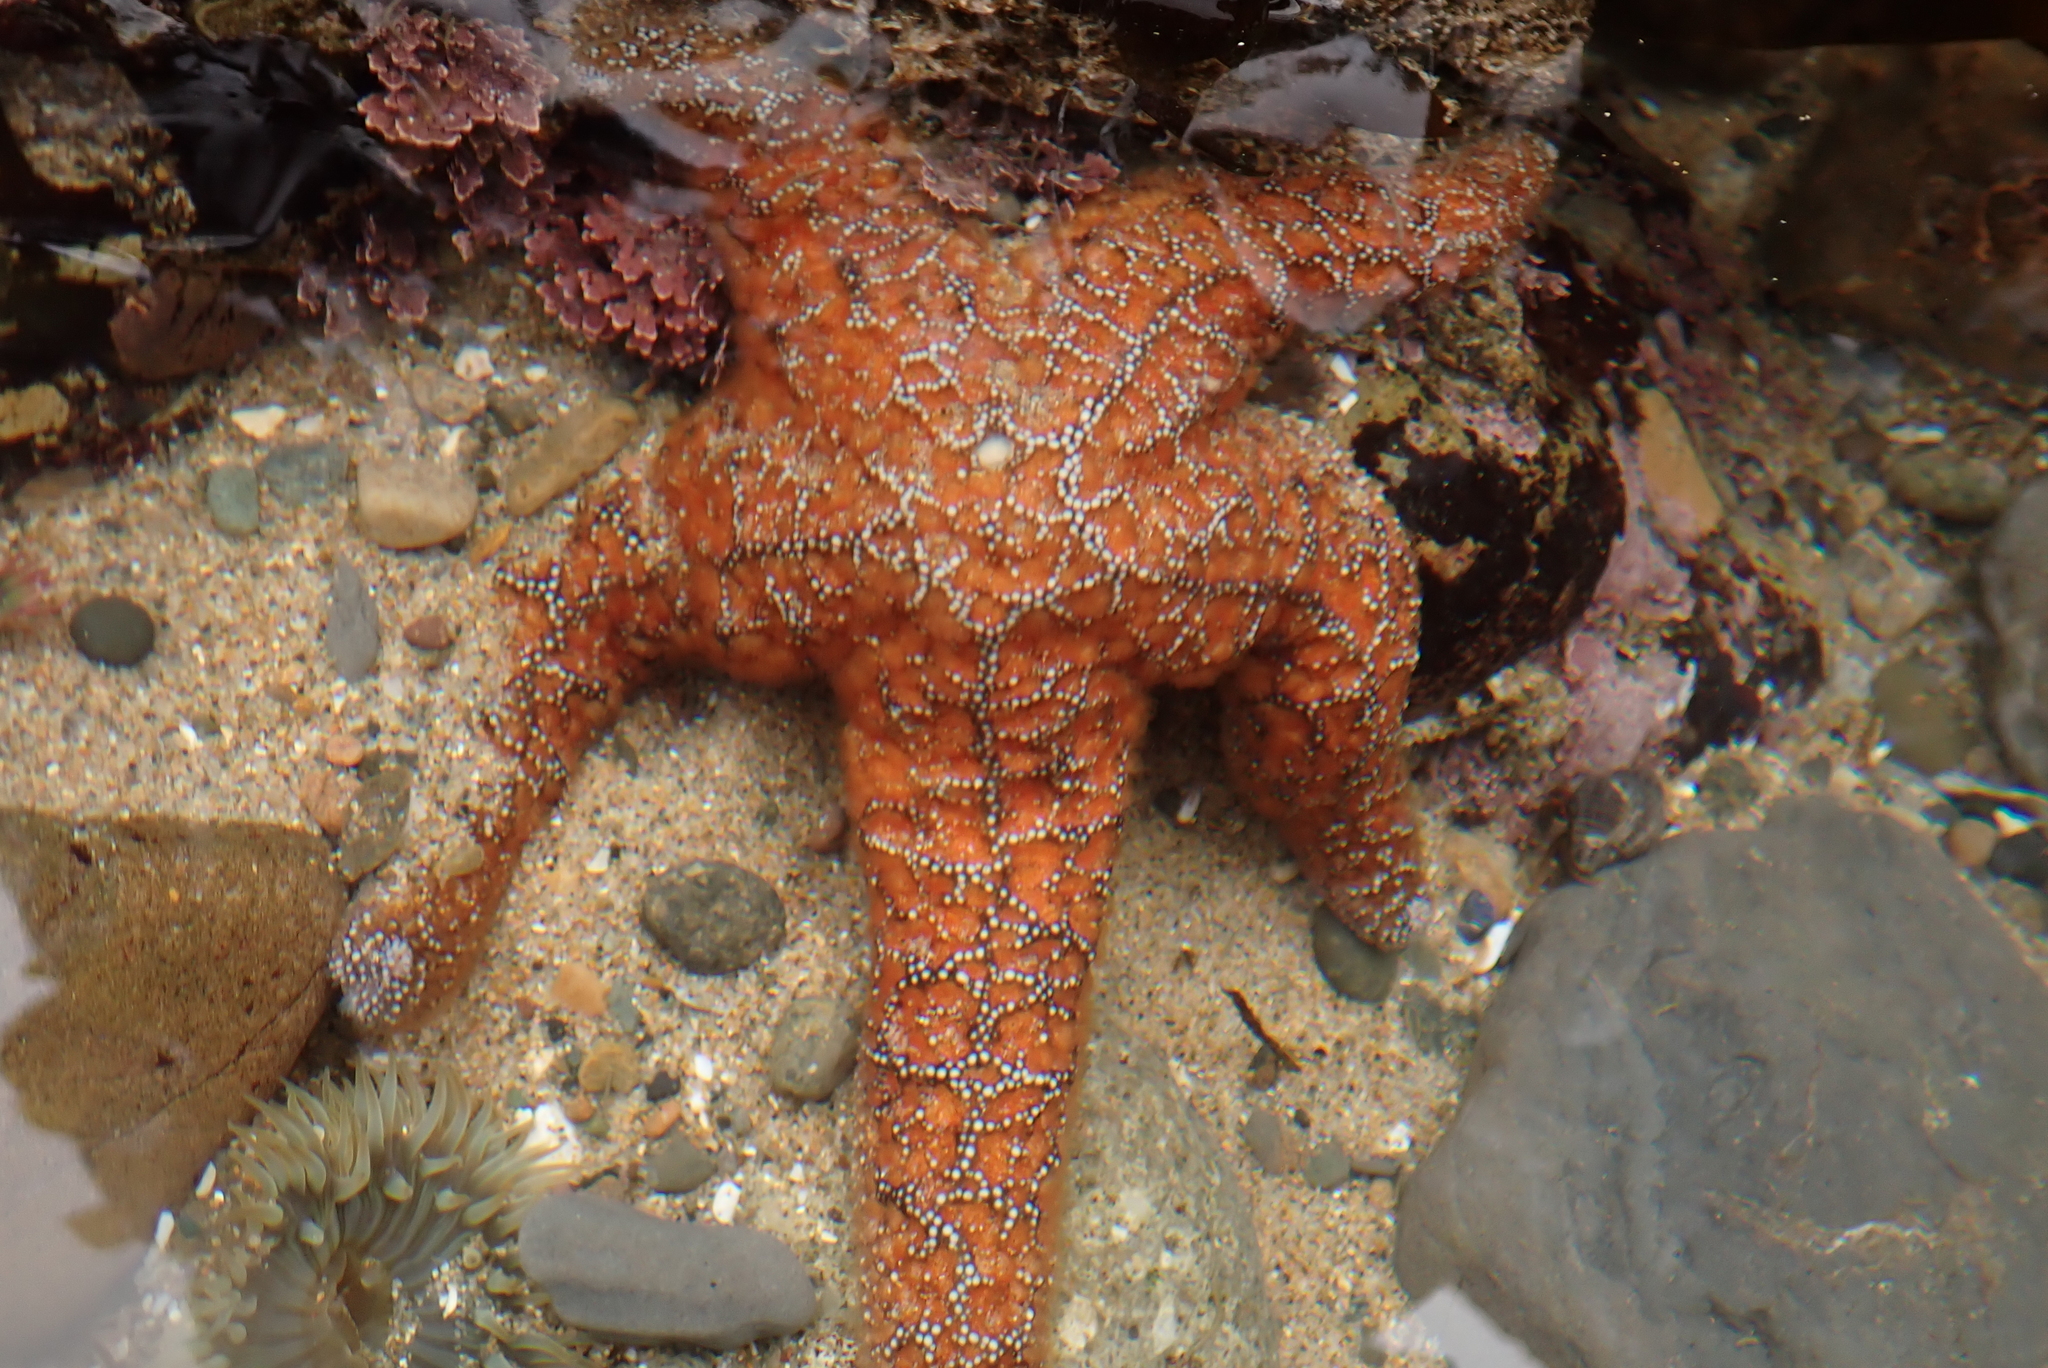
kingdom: Animalia
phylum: Echinodermata
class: Asteroidea
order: Forcipulatida
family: Asteriidae
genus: Pisaster
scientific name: Pisaster ochraceus
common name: Ochre stars
